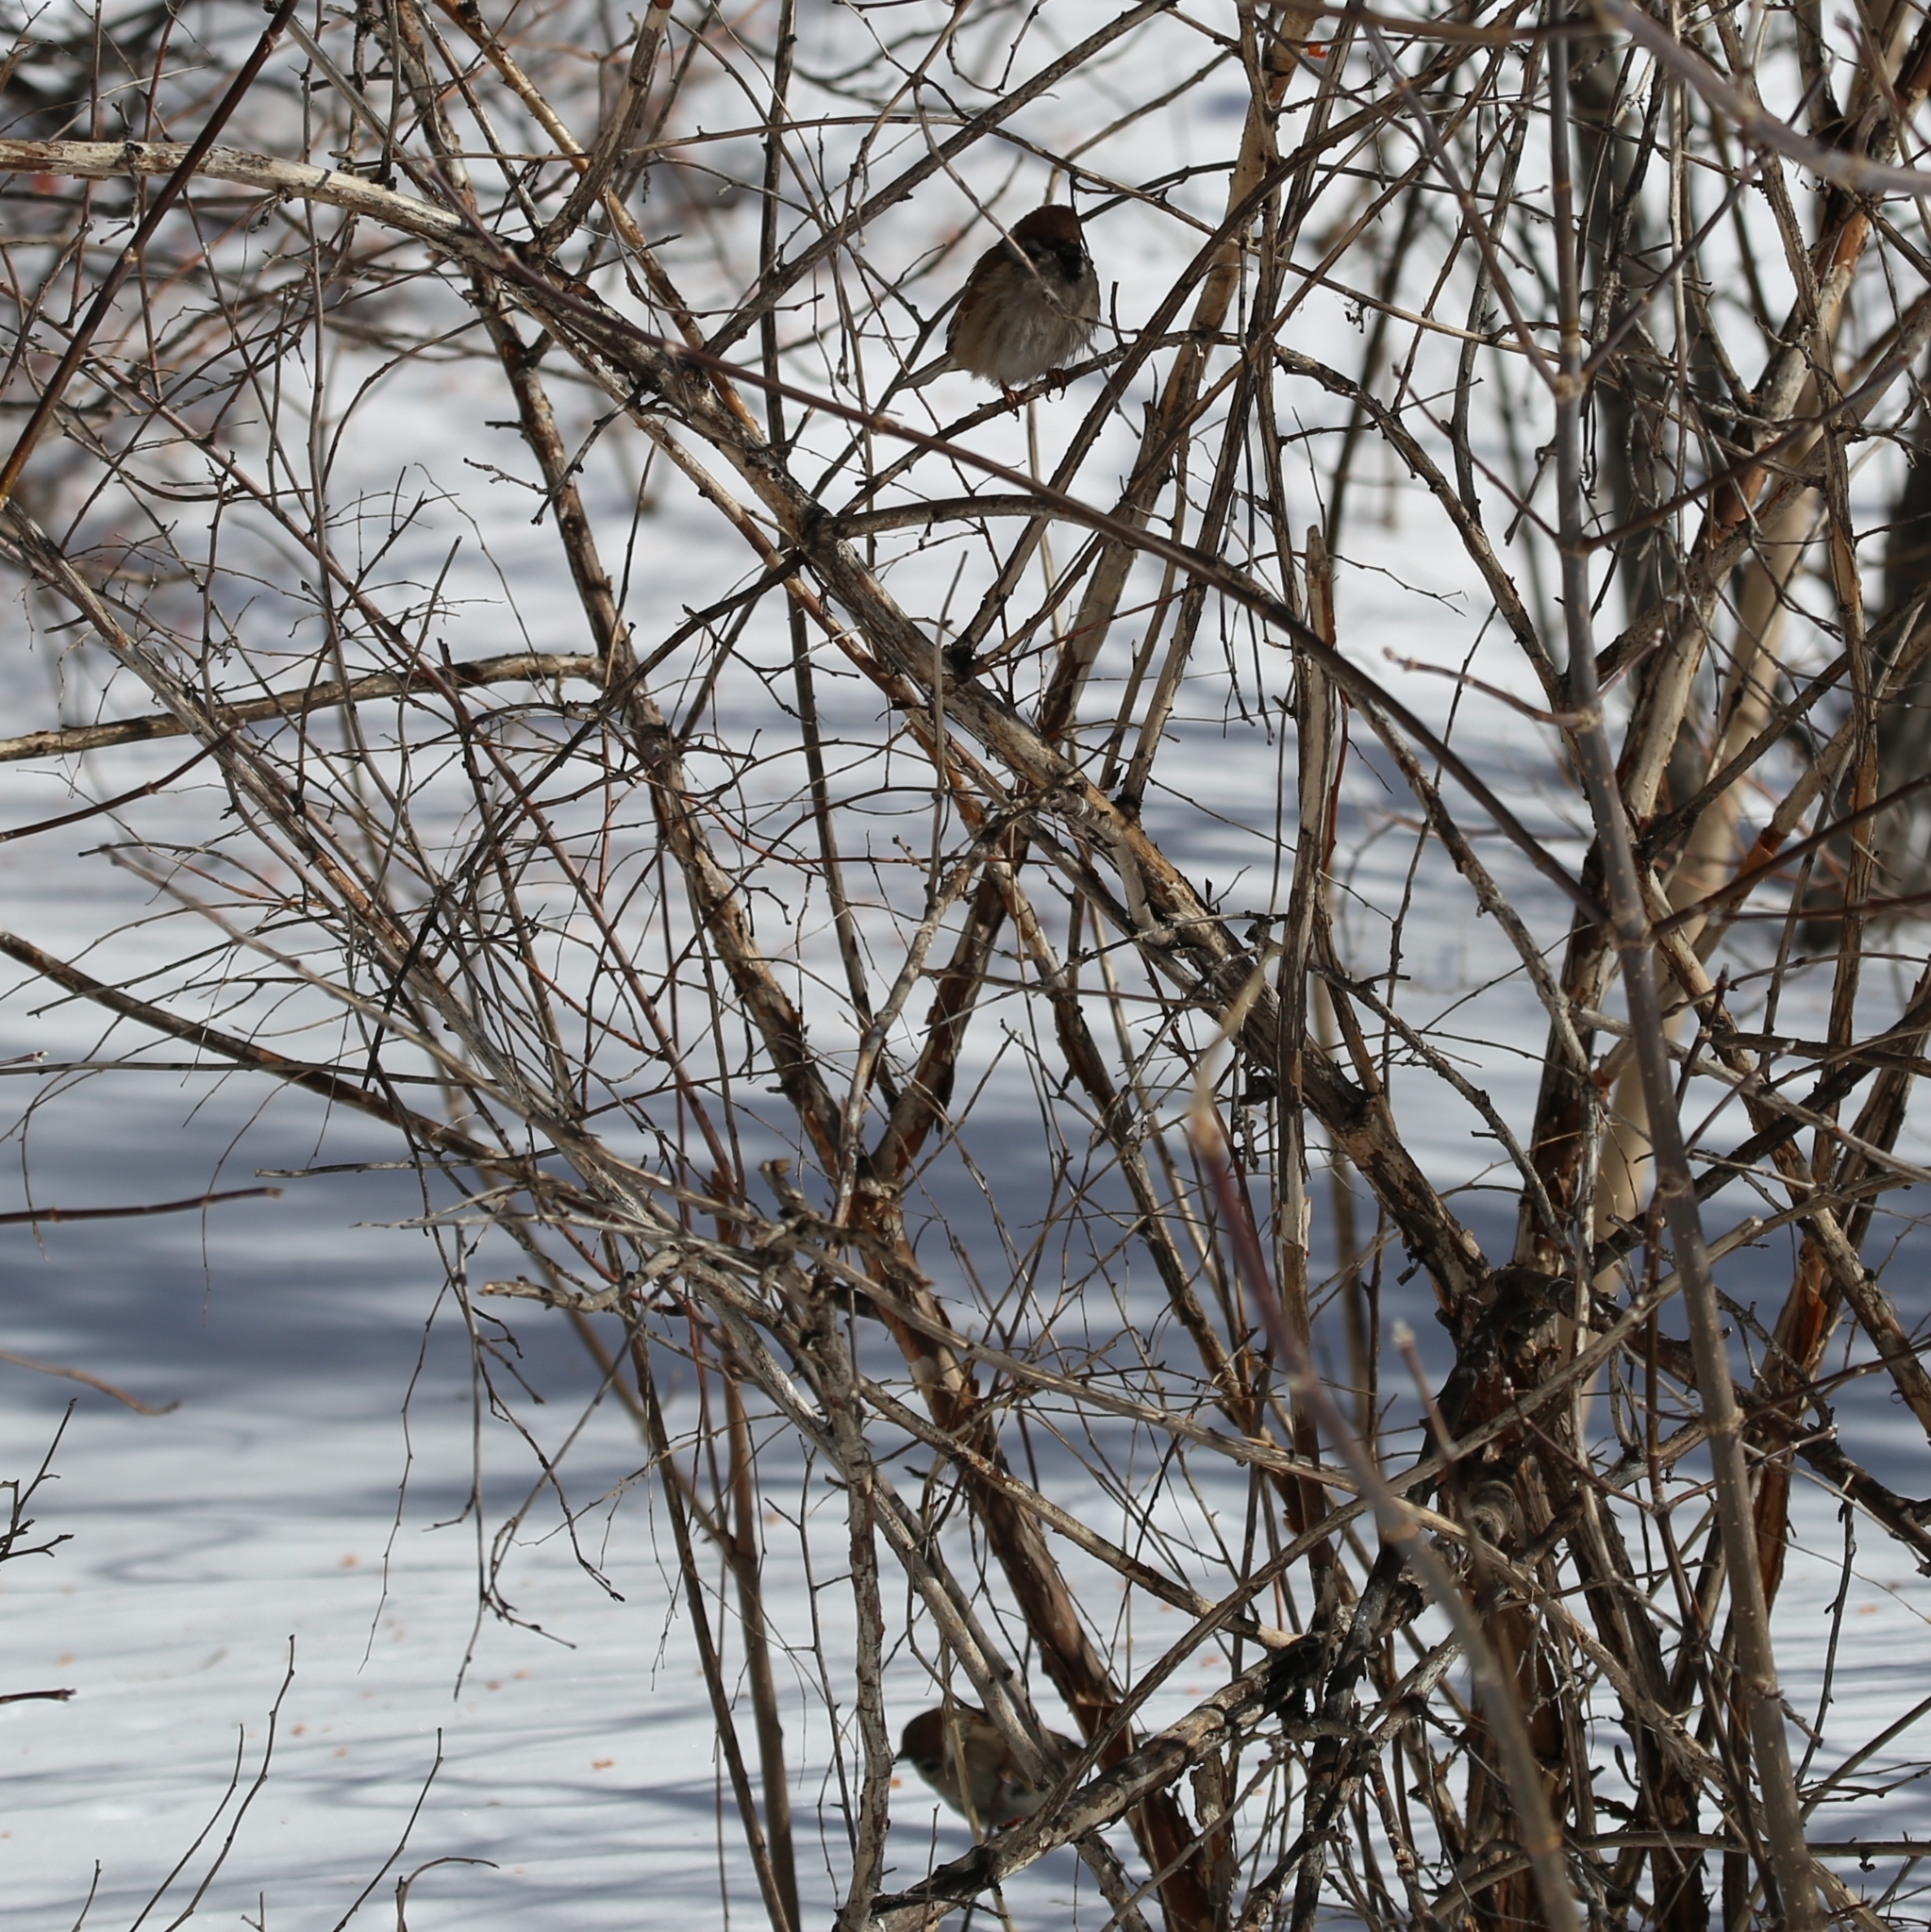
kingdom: Animalia
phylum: Chordata
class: Aves
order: Passeriformes
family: Passeridae
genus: Passer
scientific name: Passer montanus
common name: Eurasian tree sparrow
